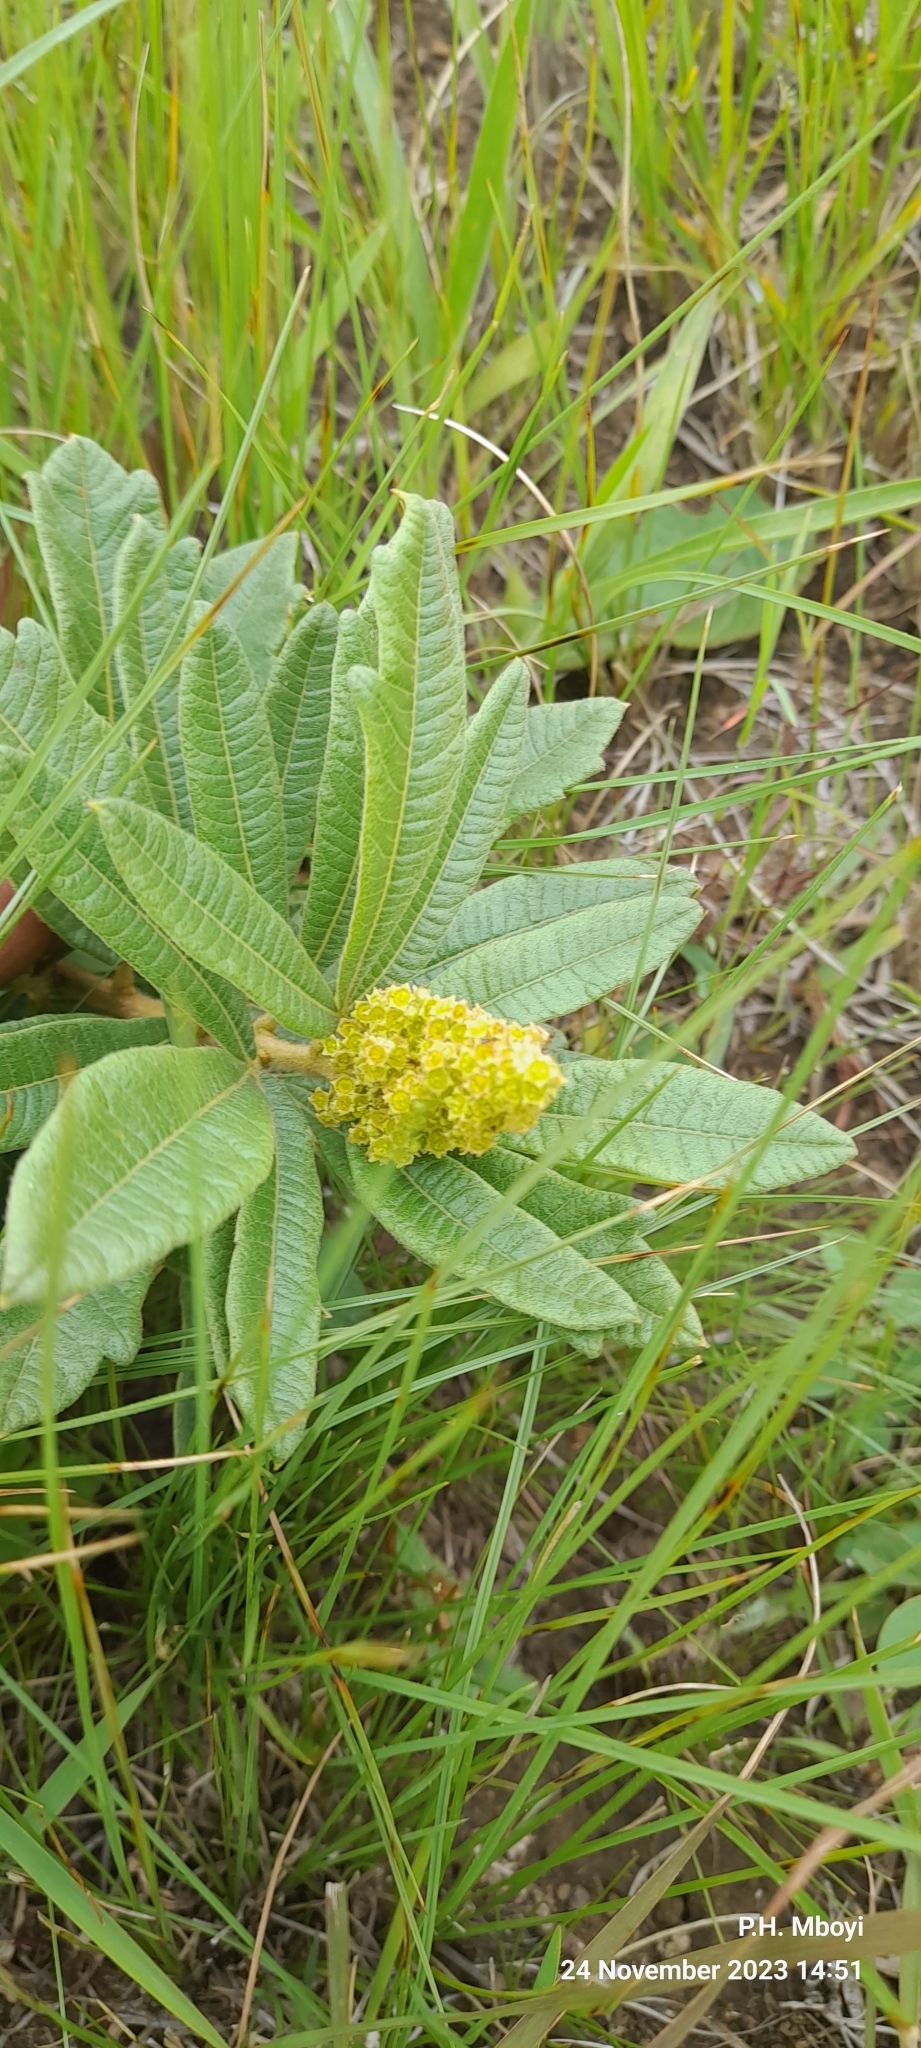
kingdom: Plantae
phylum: Tracheophyta
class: Magnoliopsida
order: Sapindales
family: Anacardiaceae
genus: Searsia
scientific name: Searsia discolor
